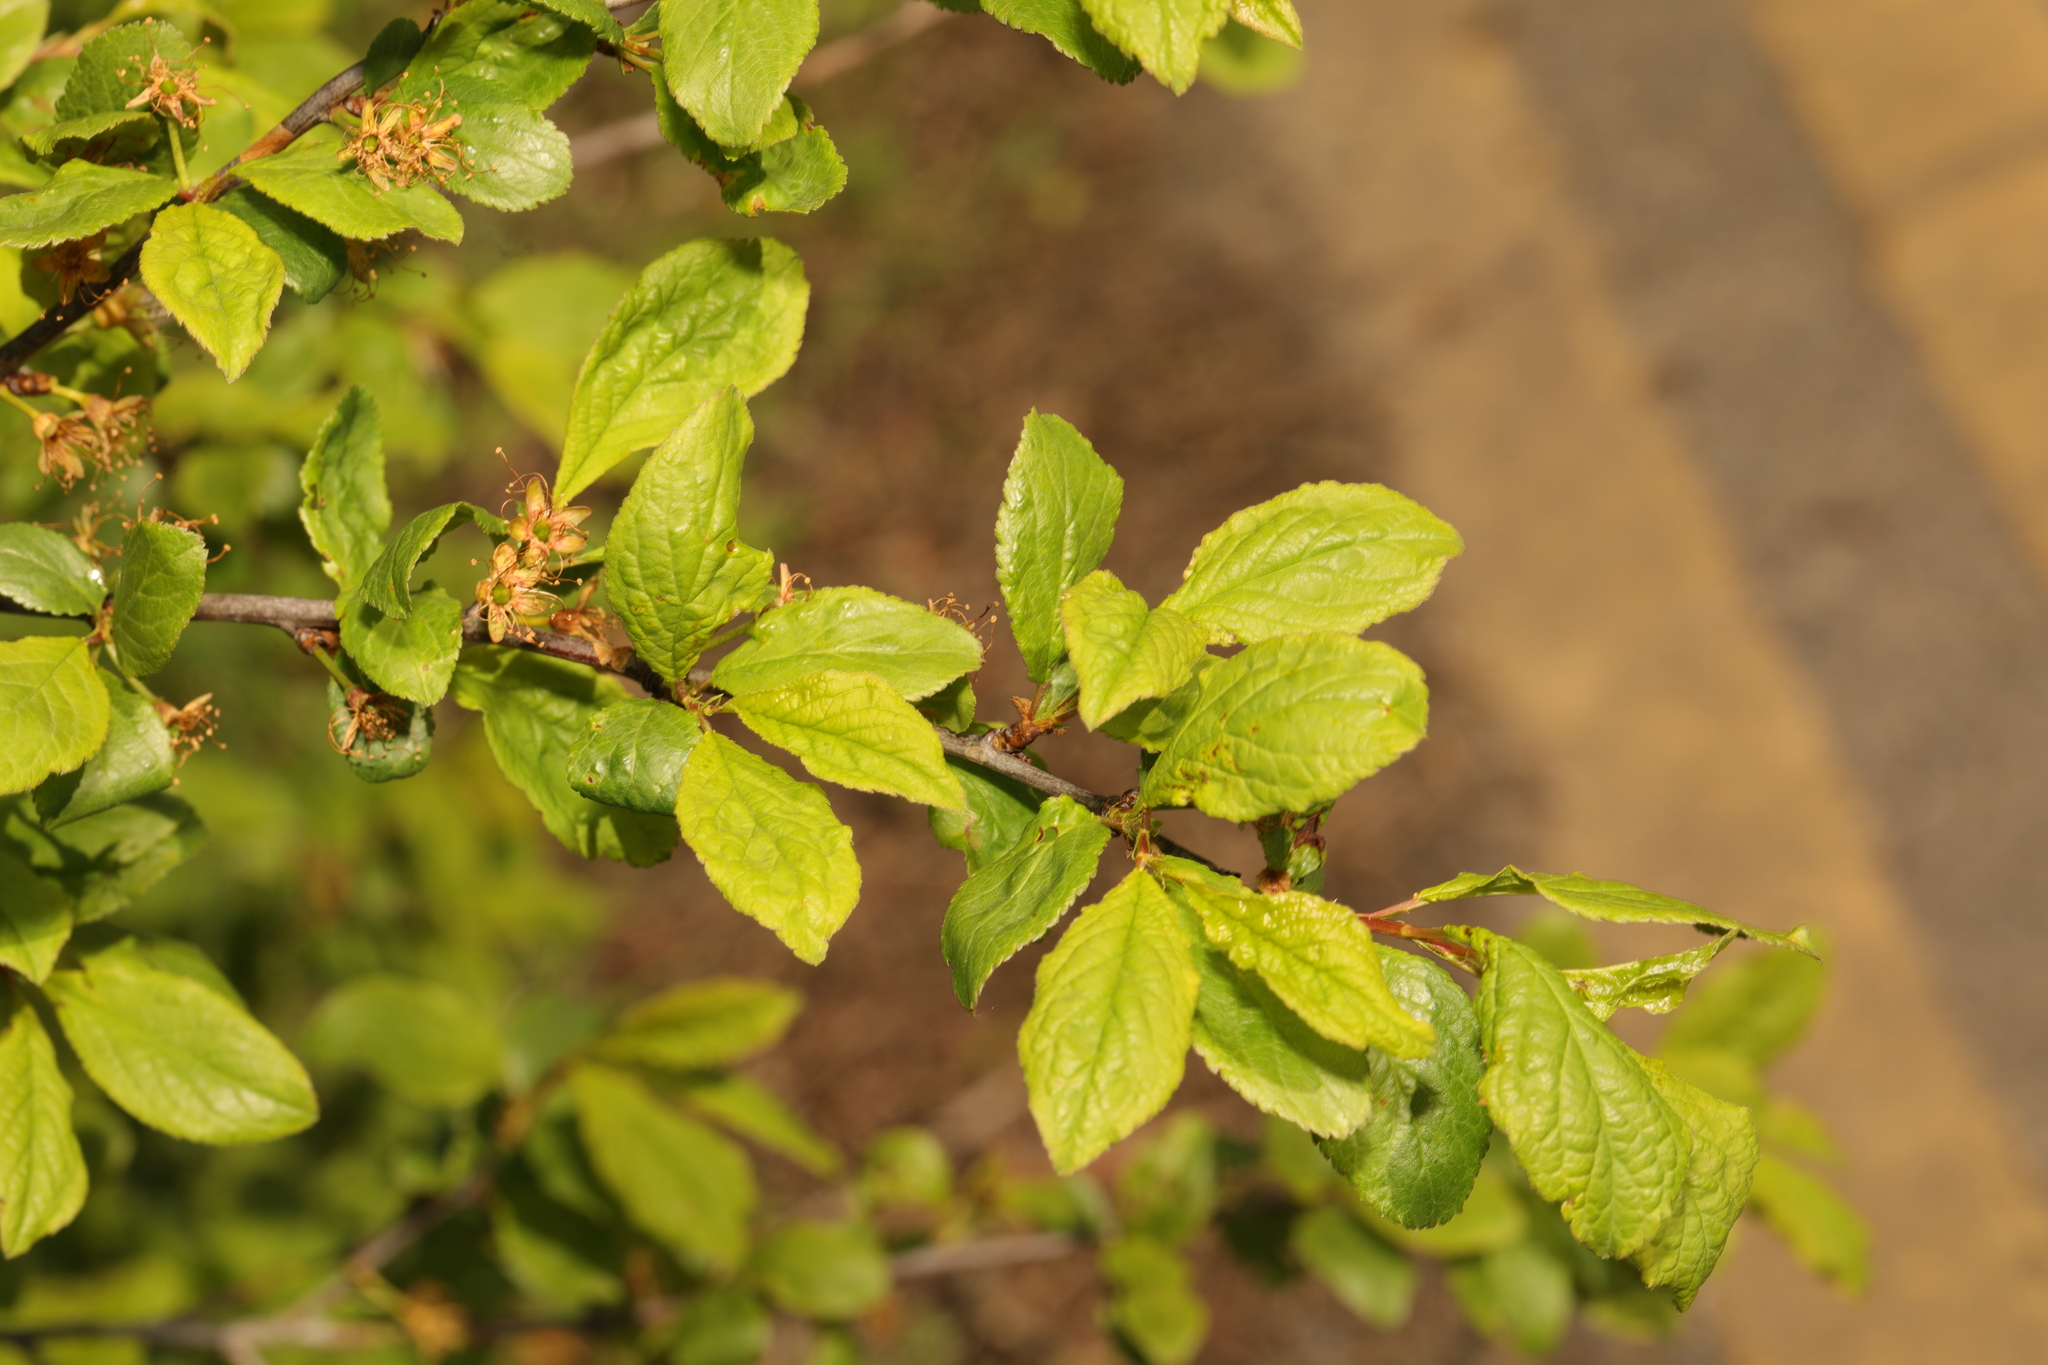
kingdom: Plantae
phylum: Tracheophyta
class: Magnoliopsida
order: Rosales
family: Rosaceae
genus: Prunus
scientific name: Prunus spinosa
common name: Blackthorn
